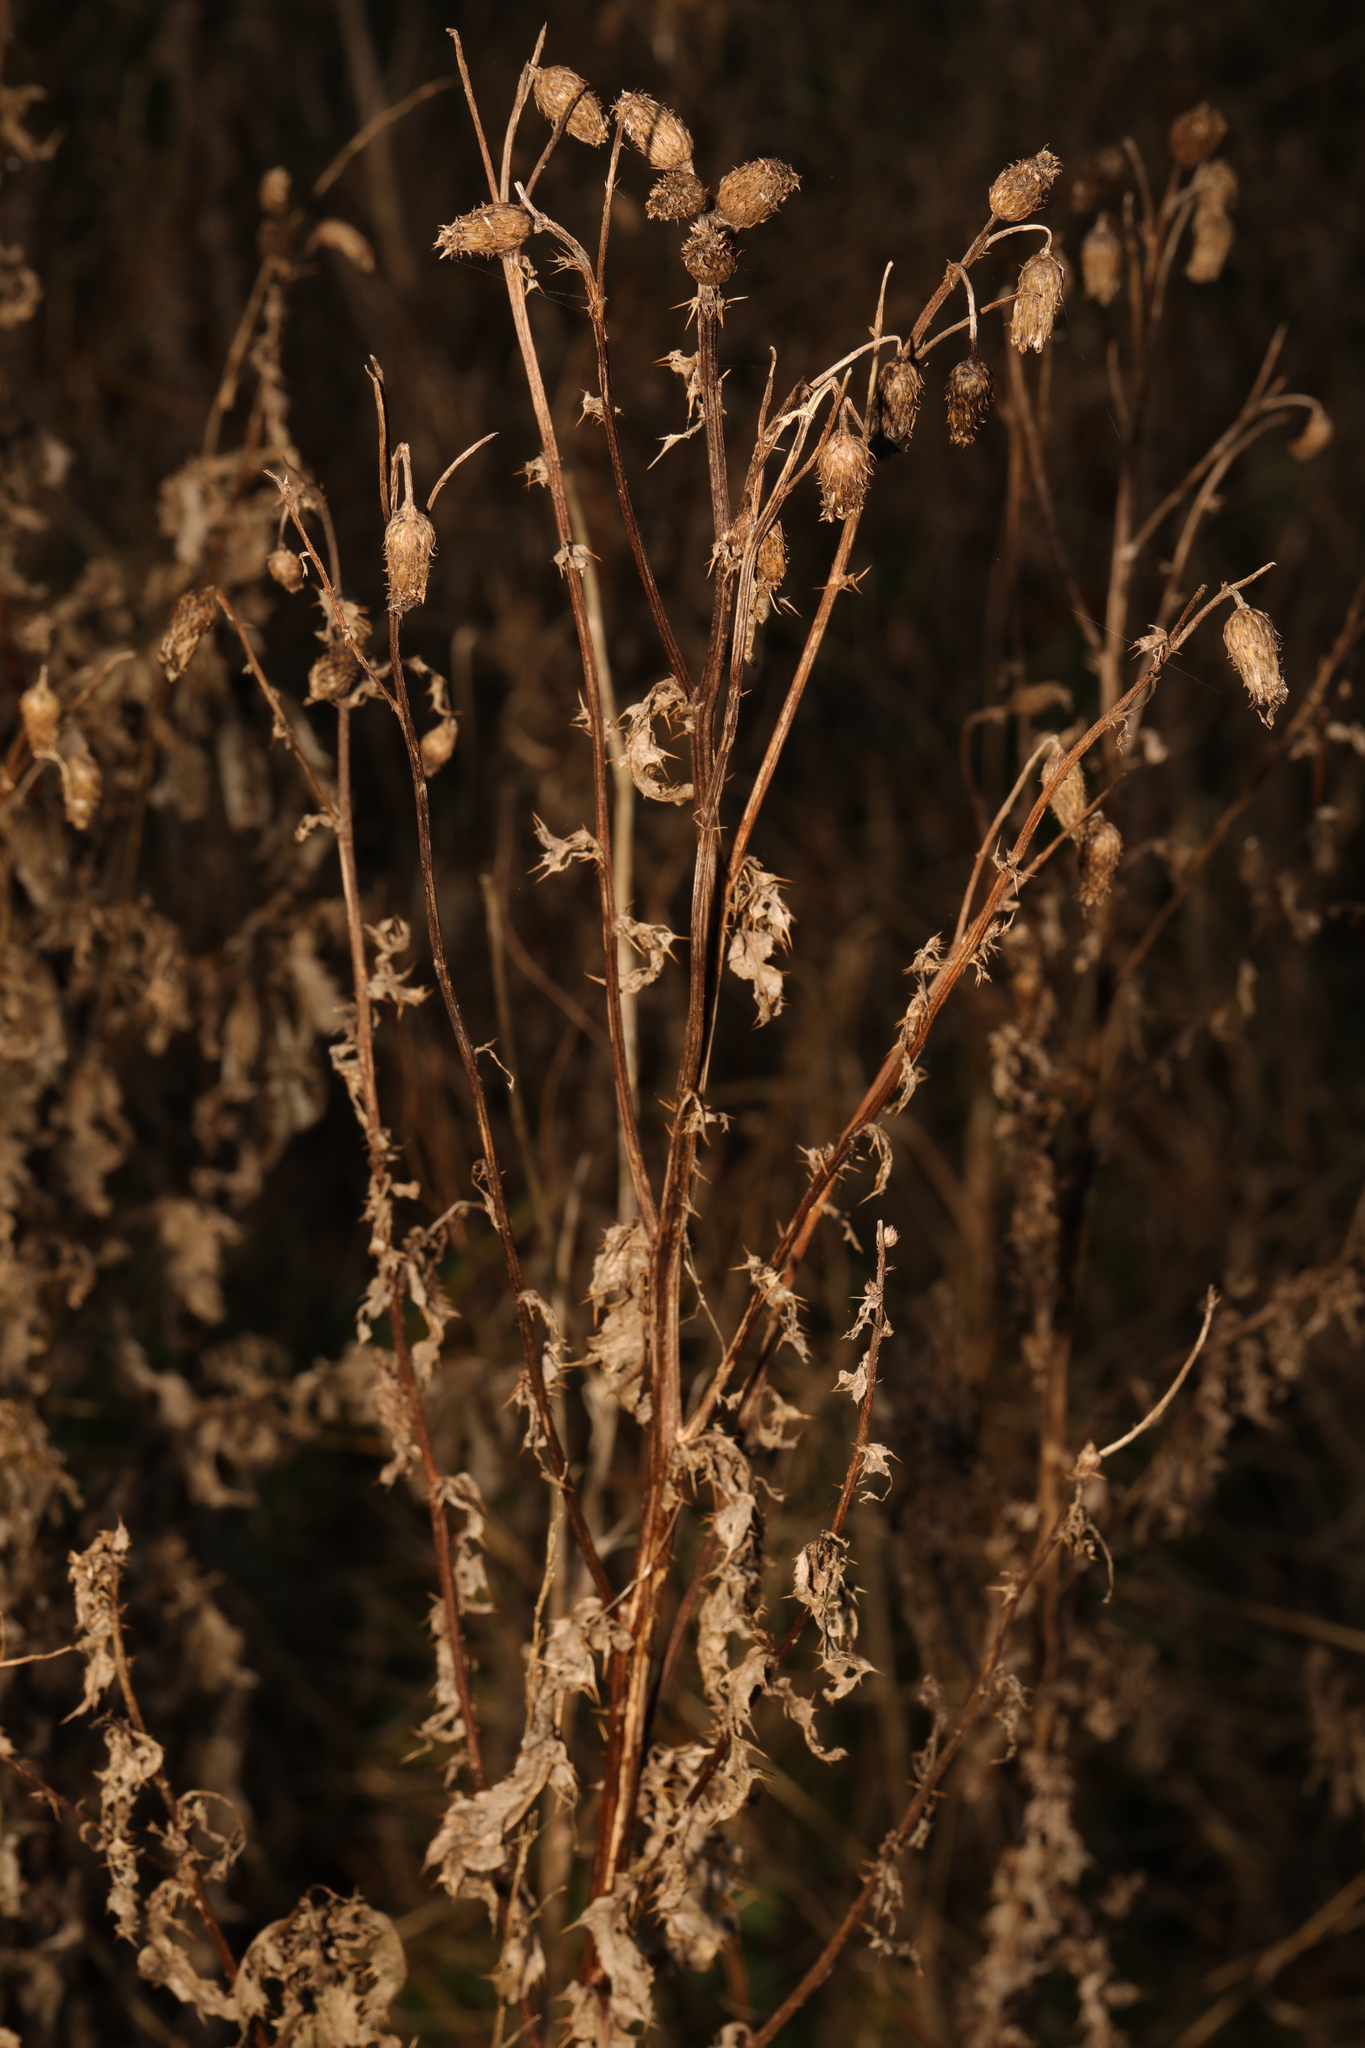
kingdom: Plantae
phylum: Tracheophyta
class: Magnoliopsida
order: Asterales
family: Asteraceae
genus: Cirsium
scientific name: Cirsium arvense
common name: Creeping thistle
